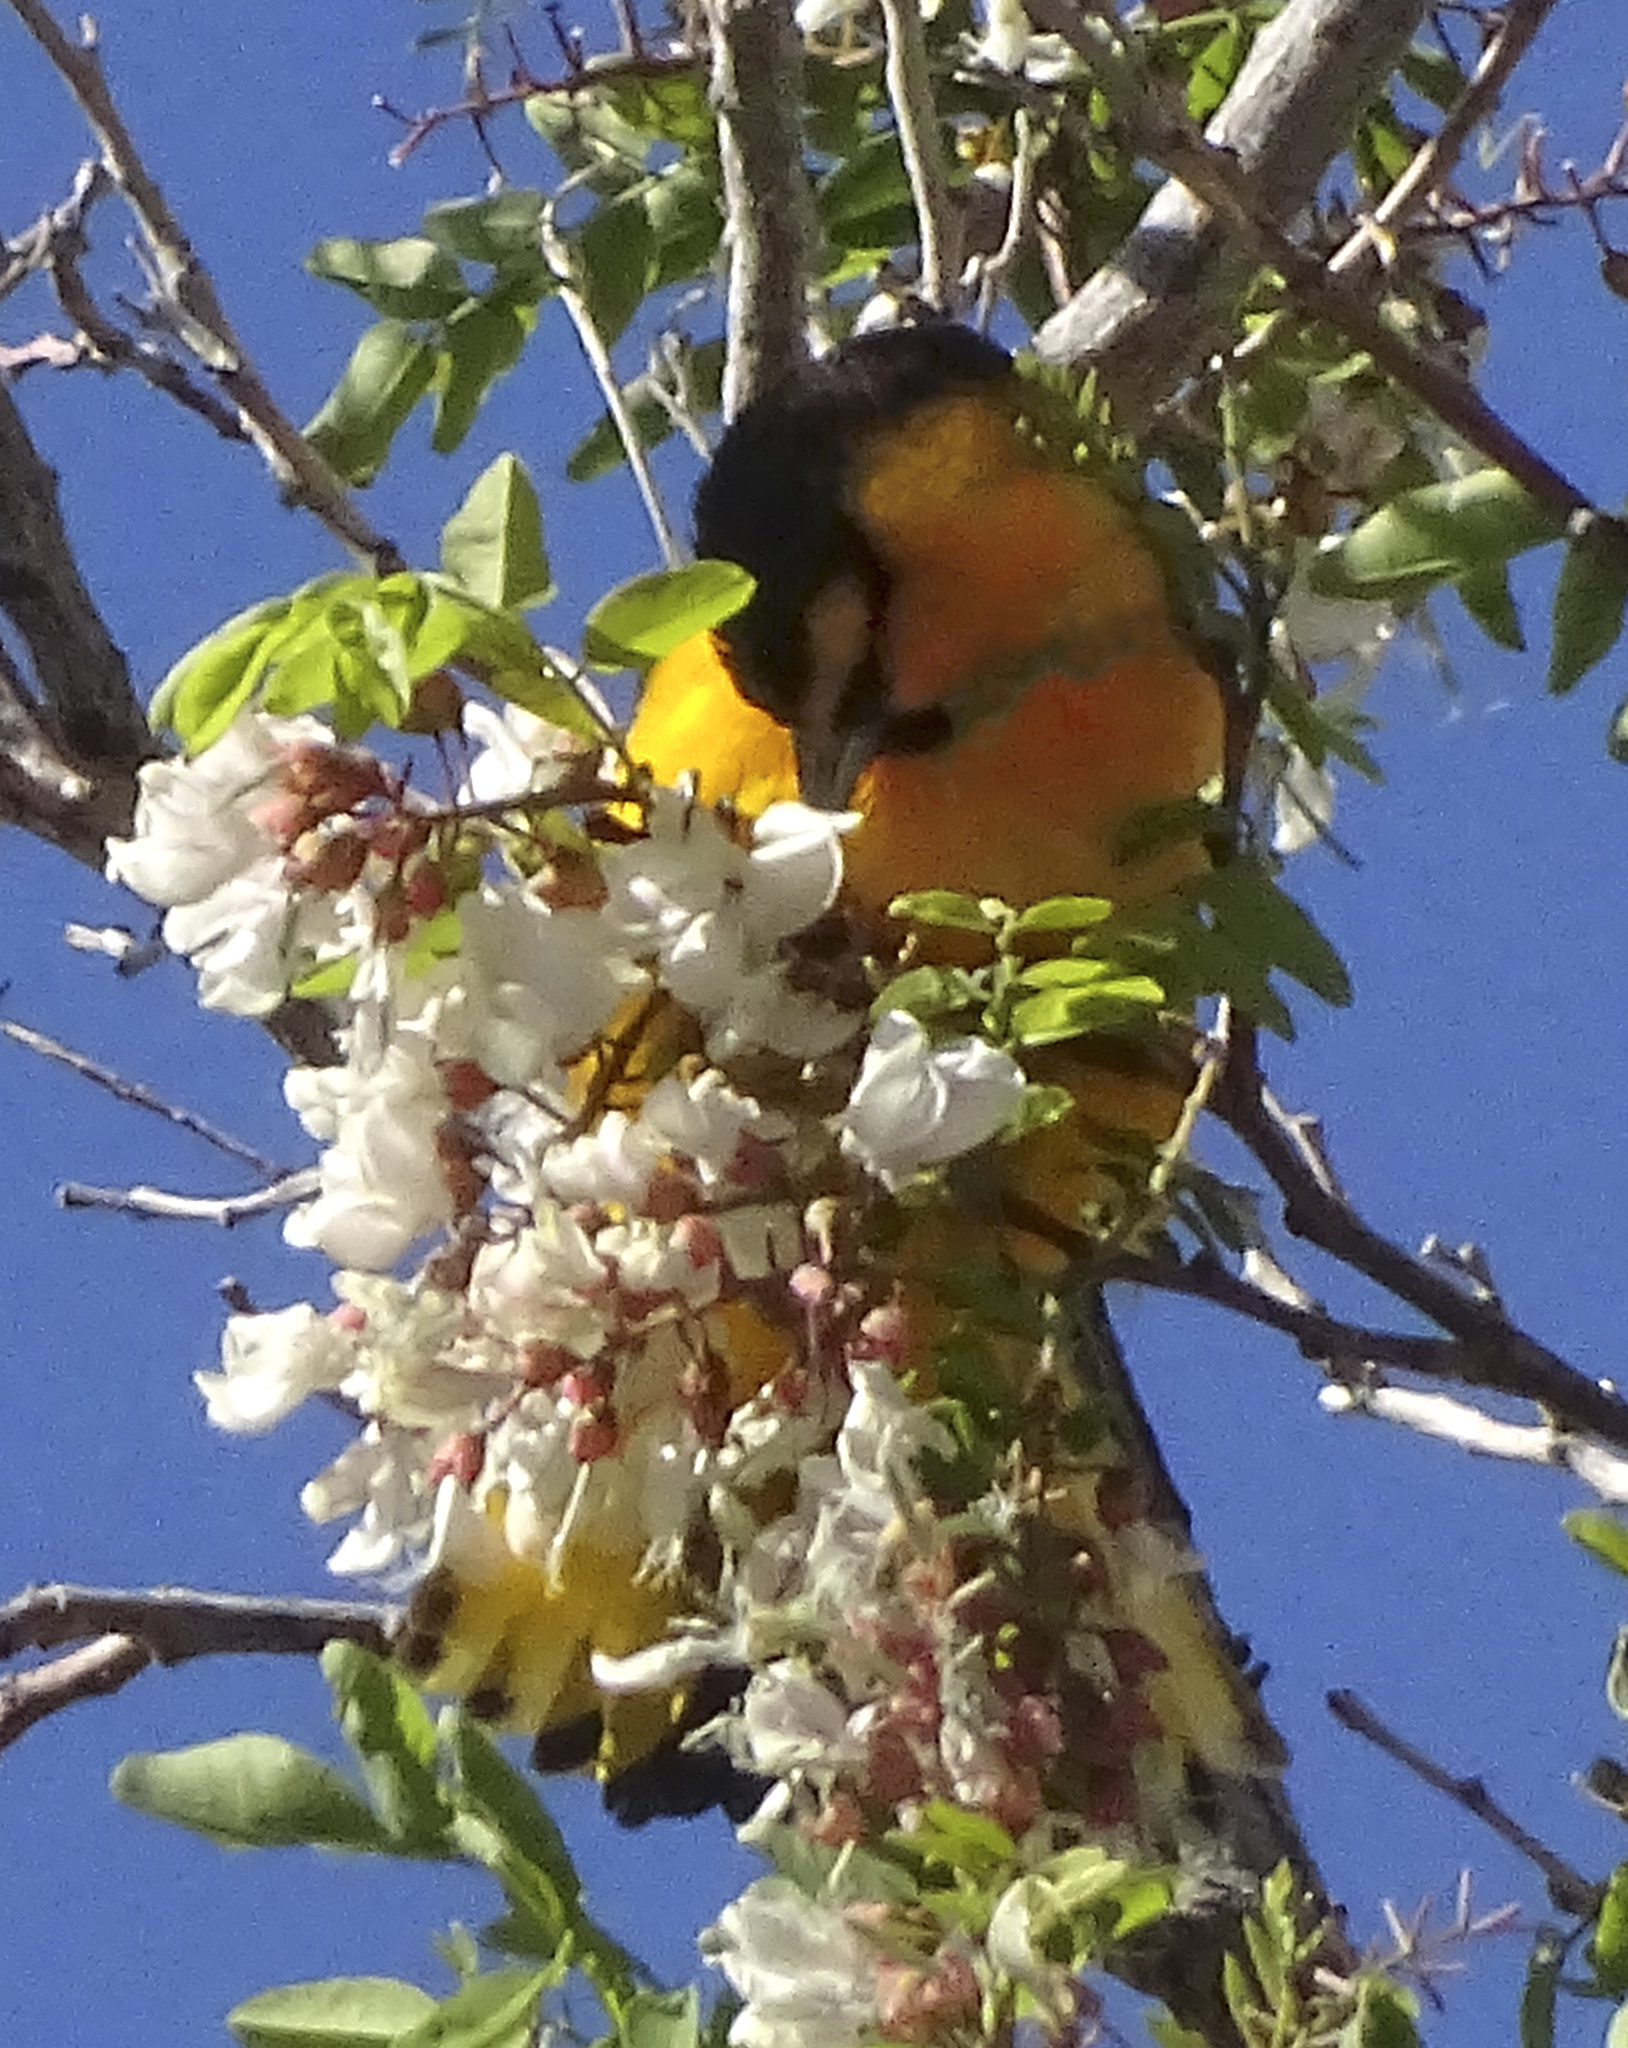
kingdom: Animalia
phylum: Chordata
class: Aves
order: Passeriformes
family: Icteridae
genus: Icterus
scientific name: Icterus bullockii
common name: Bullock's oriole
